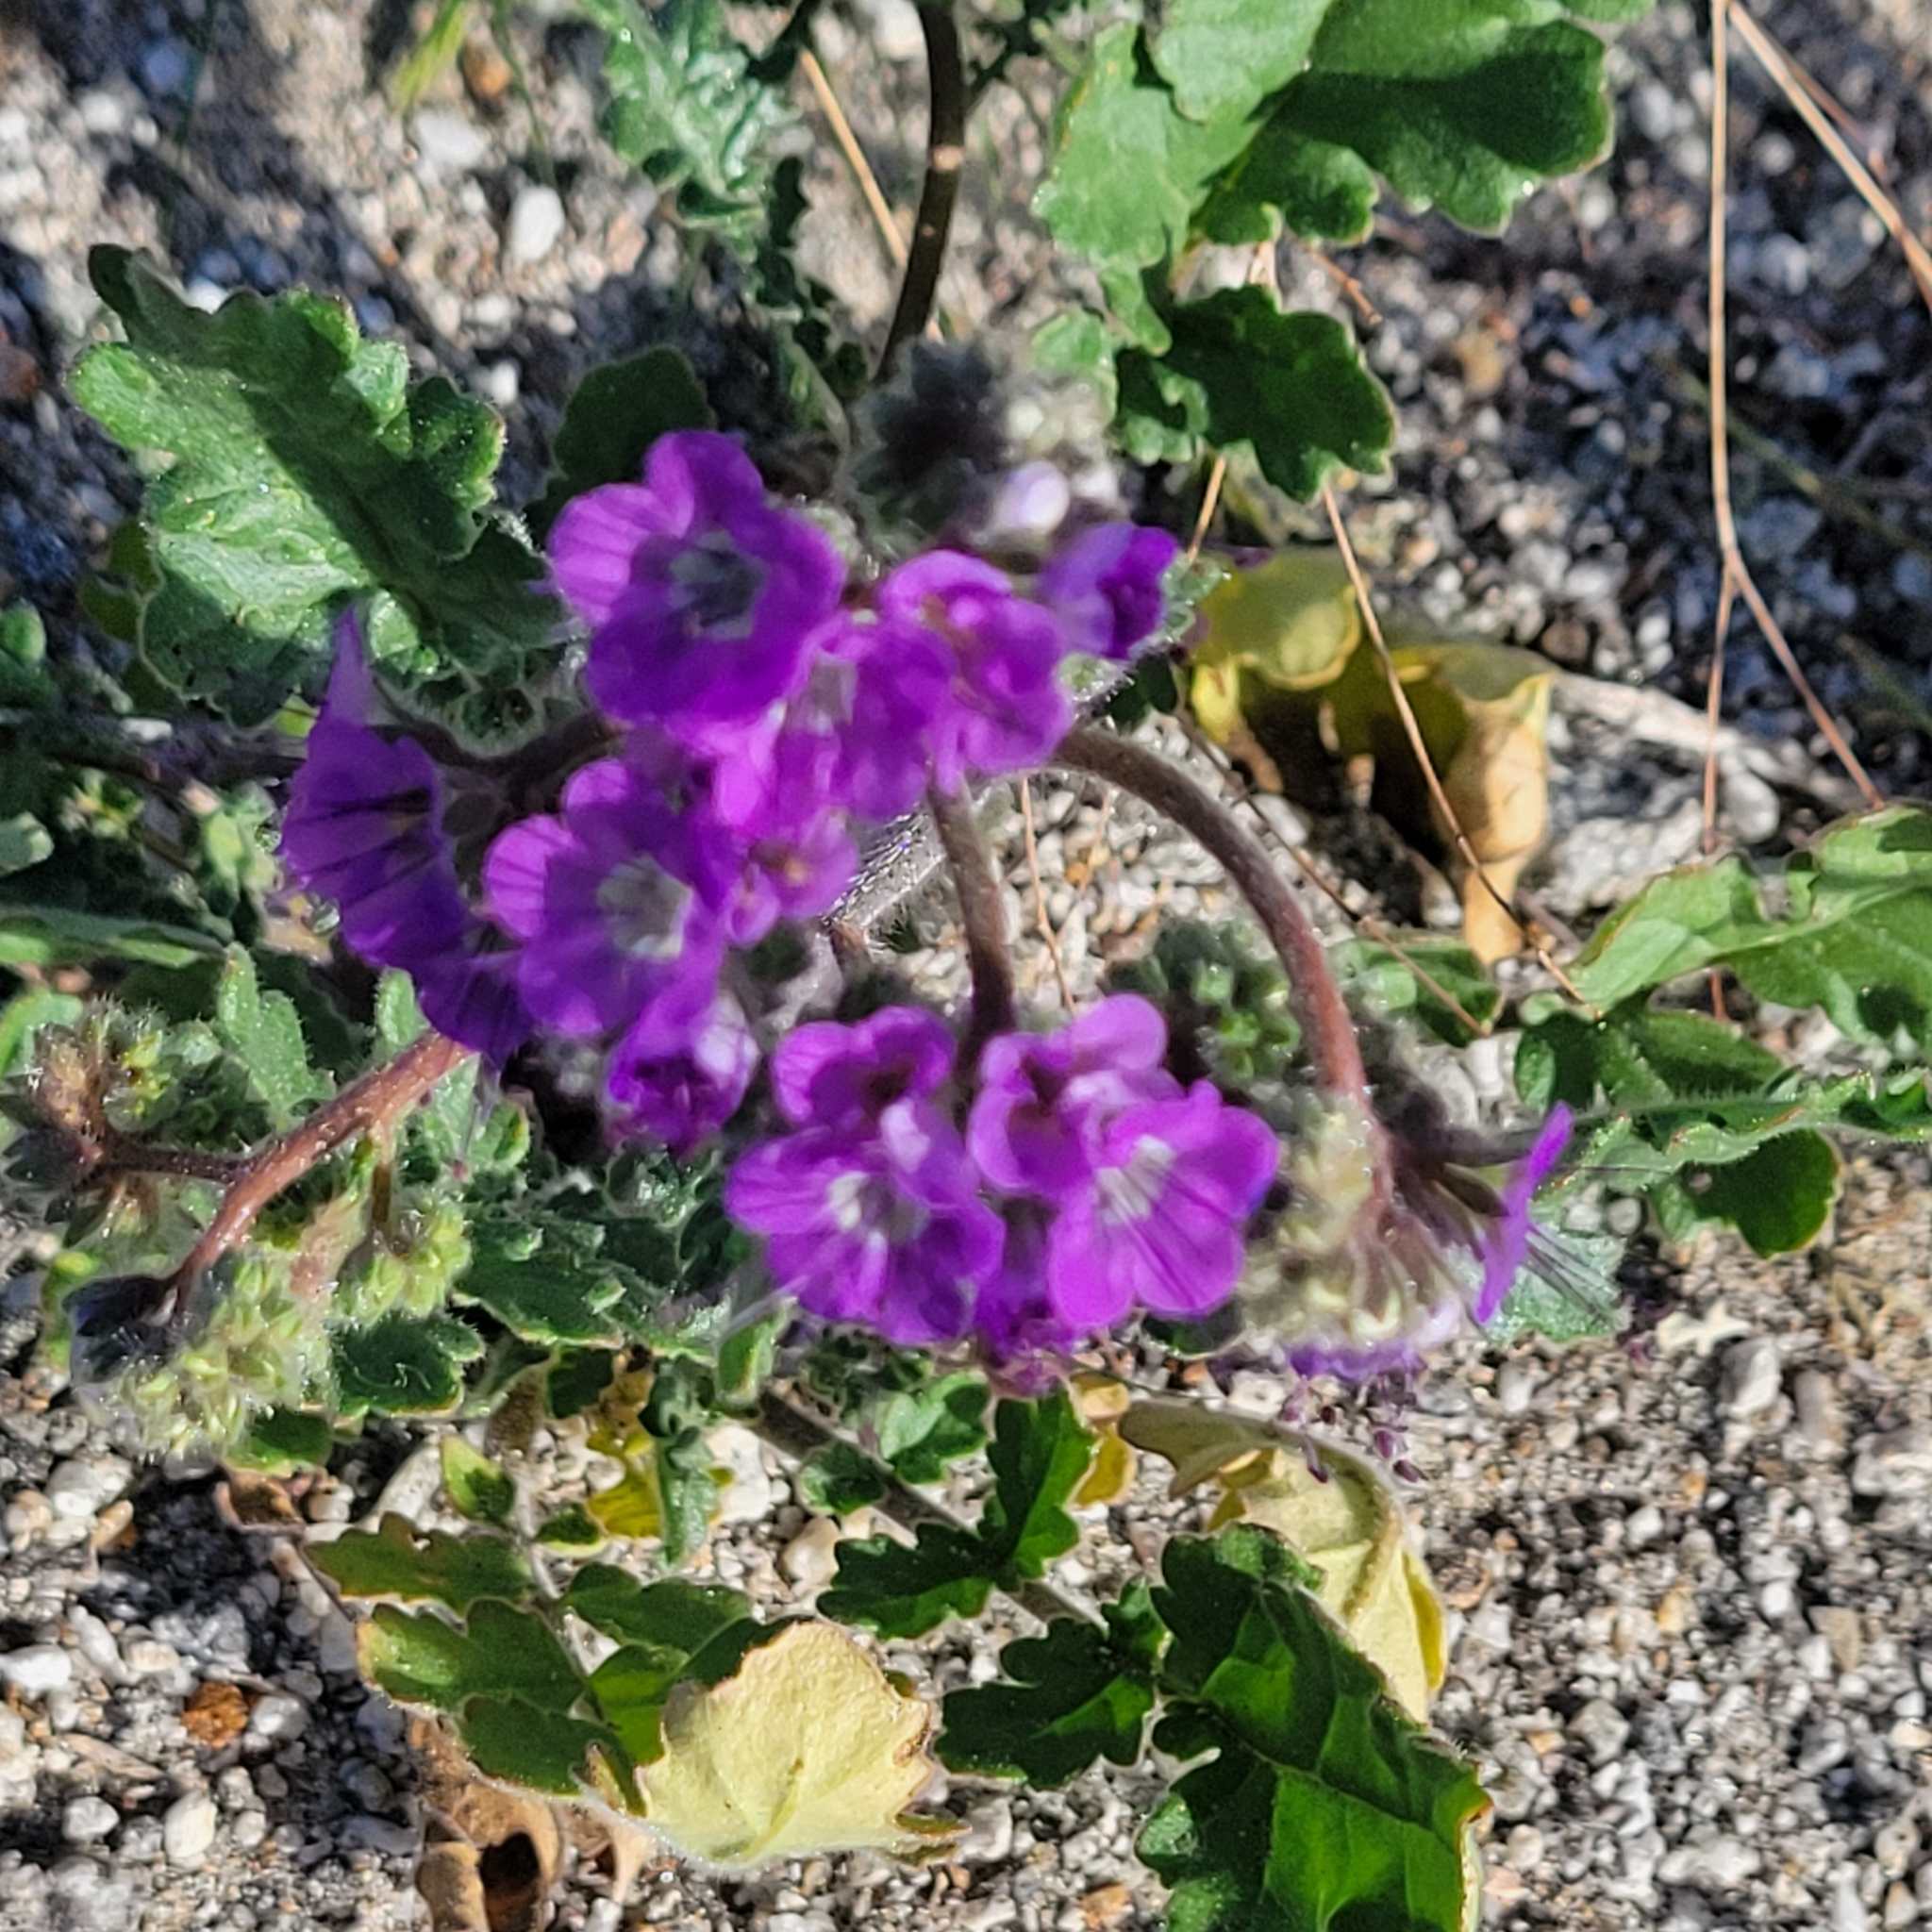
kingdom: Plantae
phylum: Tracheophyta
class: Magnoliopsida
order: Boraginales
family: Hydrophyllaceae
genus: Phacelia
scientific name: Phacelia crenulata
